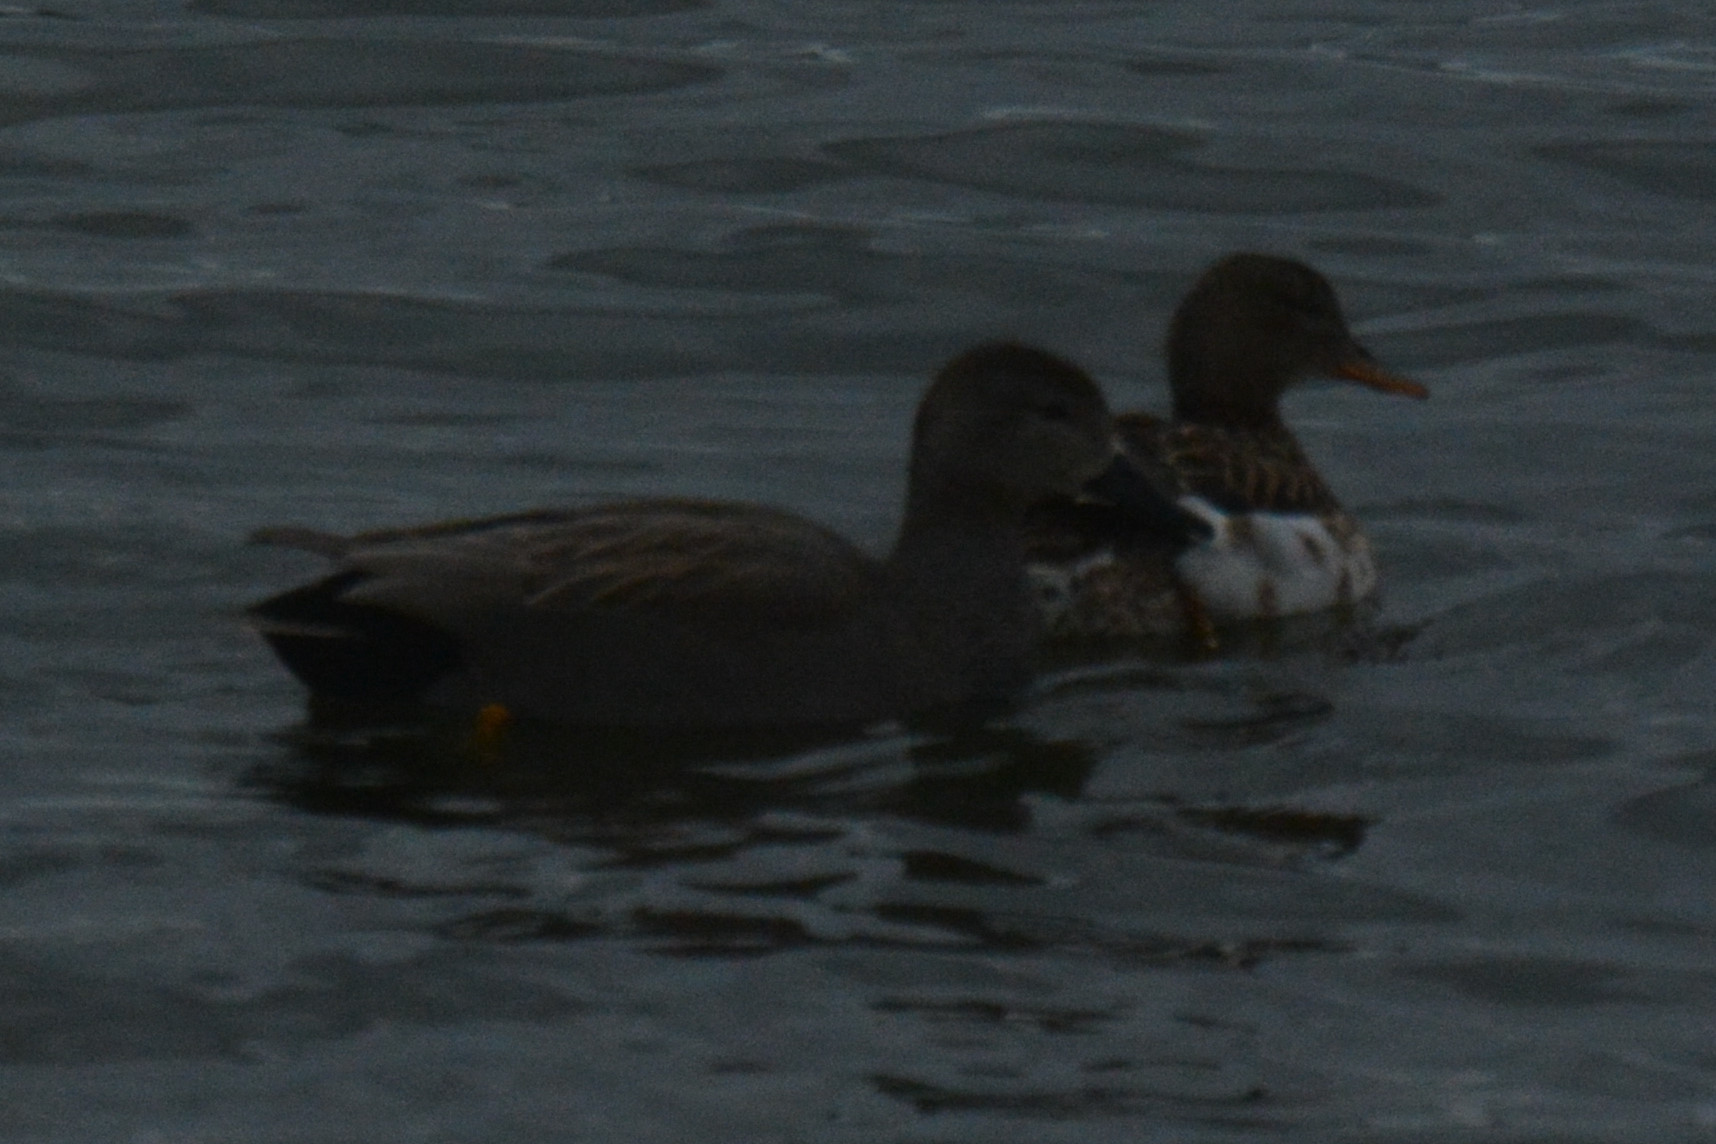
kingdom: Animalia
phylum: Chordata
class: Aves
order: Anseriformes
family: Anatidae
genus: Mareca
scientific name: Mareca strepera
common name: Gadwall
